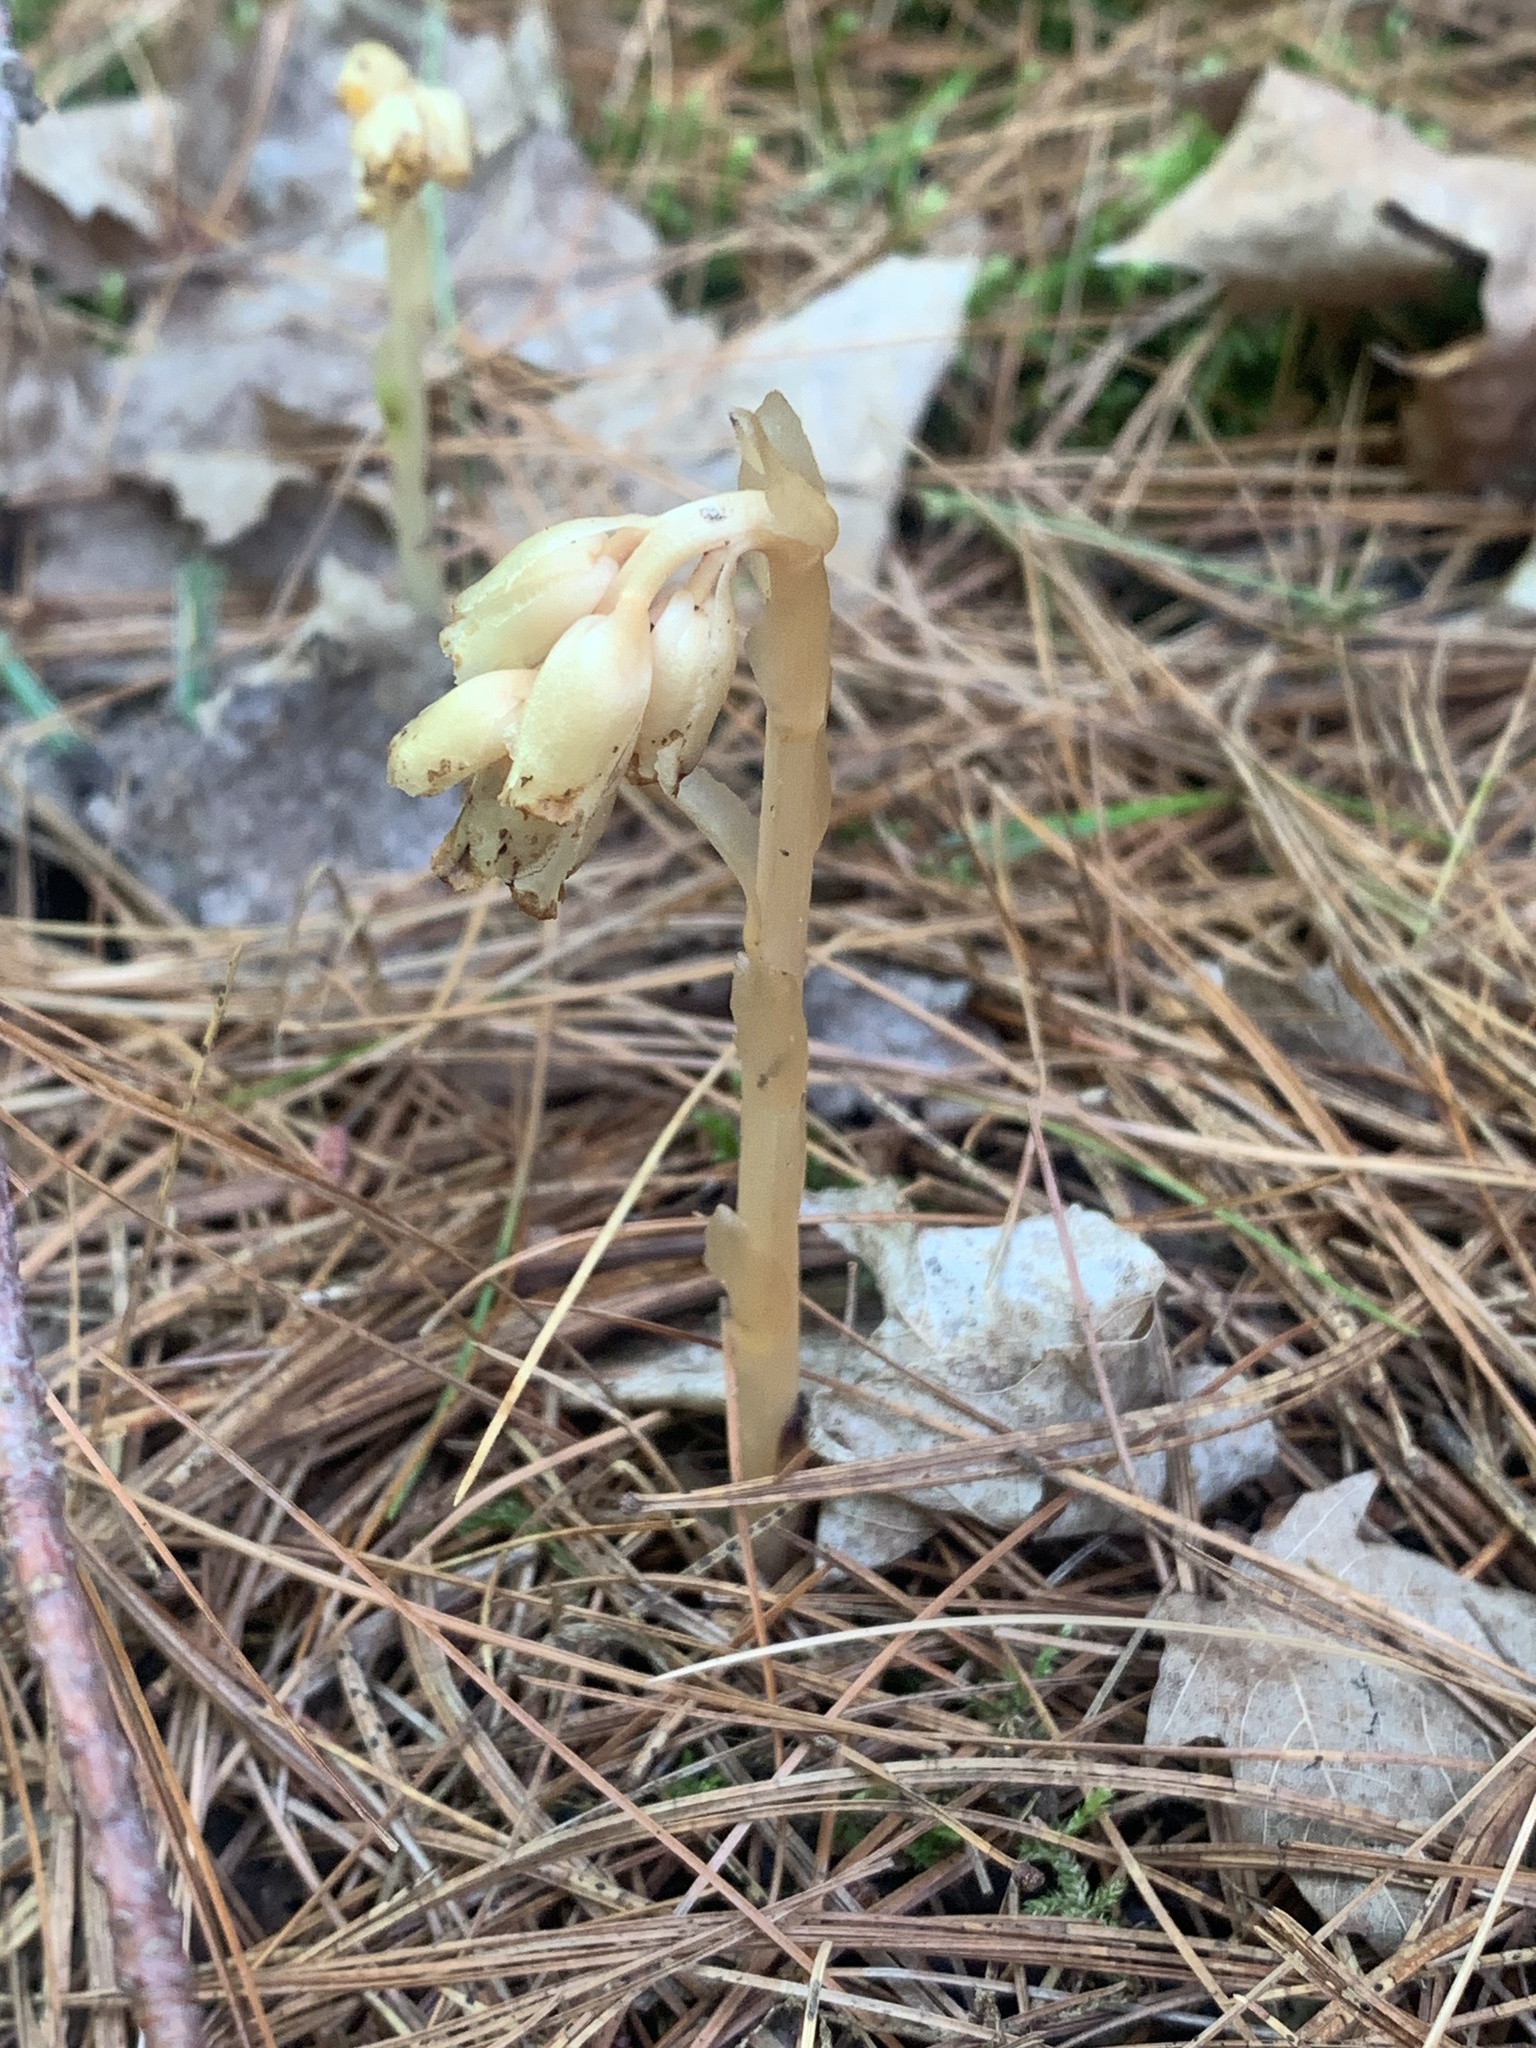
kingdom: Plantae
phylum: Tracheophyta
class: Magnoliopsida
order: Ericales
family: Ericaceae
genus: Hypopitys
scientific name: Hypopitys monotropa
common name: Yellow bird's-nest
